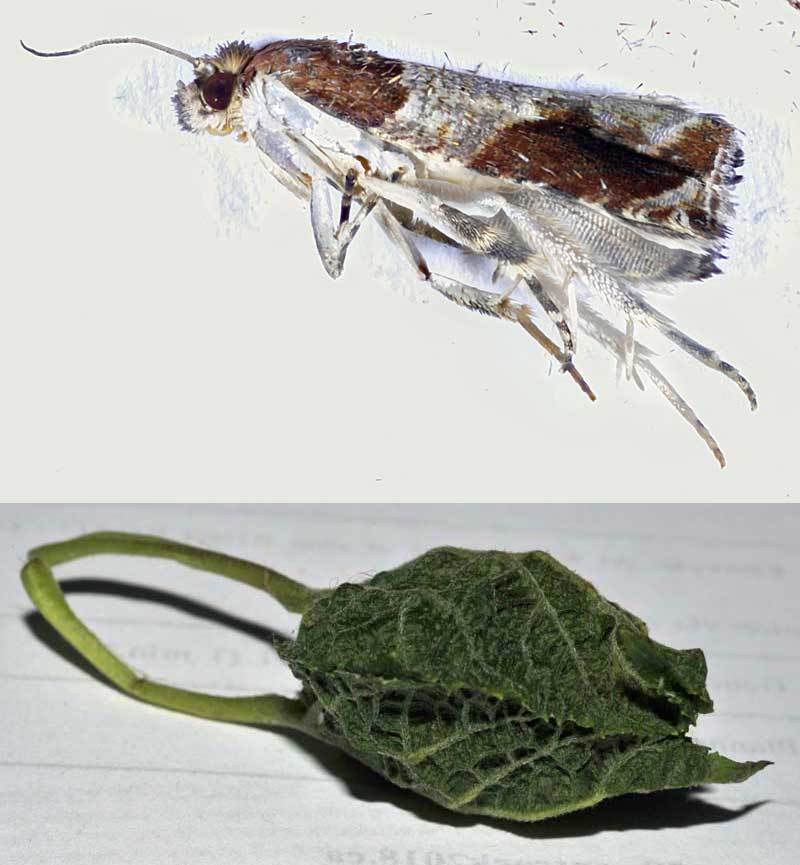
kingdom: Animalia
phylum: Arthropoda
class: Insecta
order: Lepidoptera
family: Tortricidae
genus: Olethreutes
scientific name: Olethreutes ferriferana
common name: Hydrangea leaftier moth
